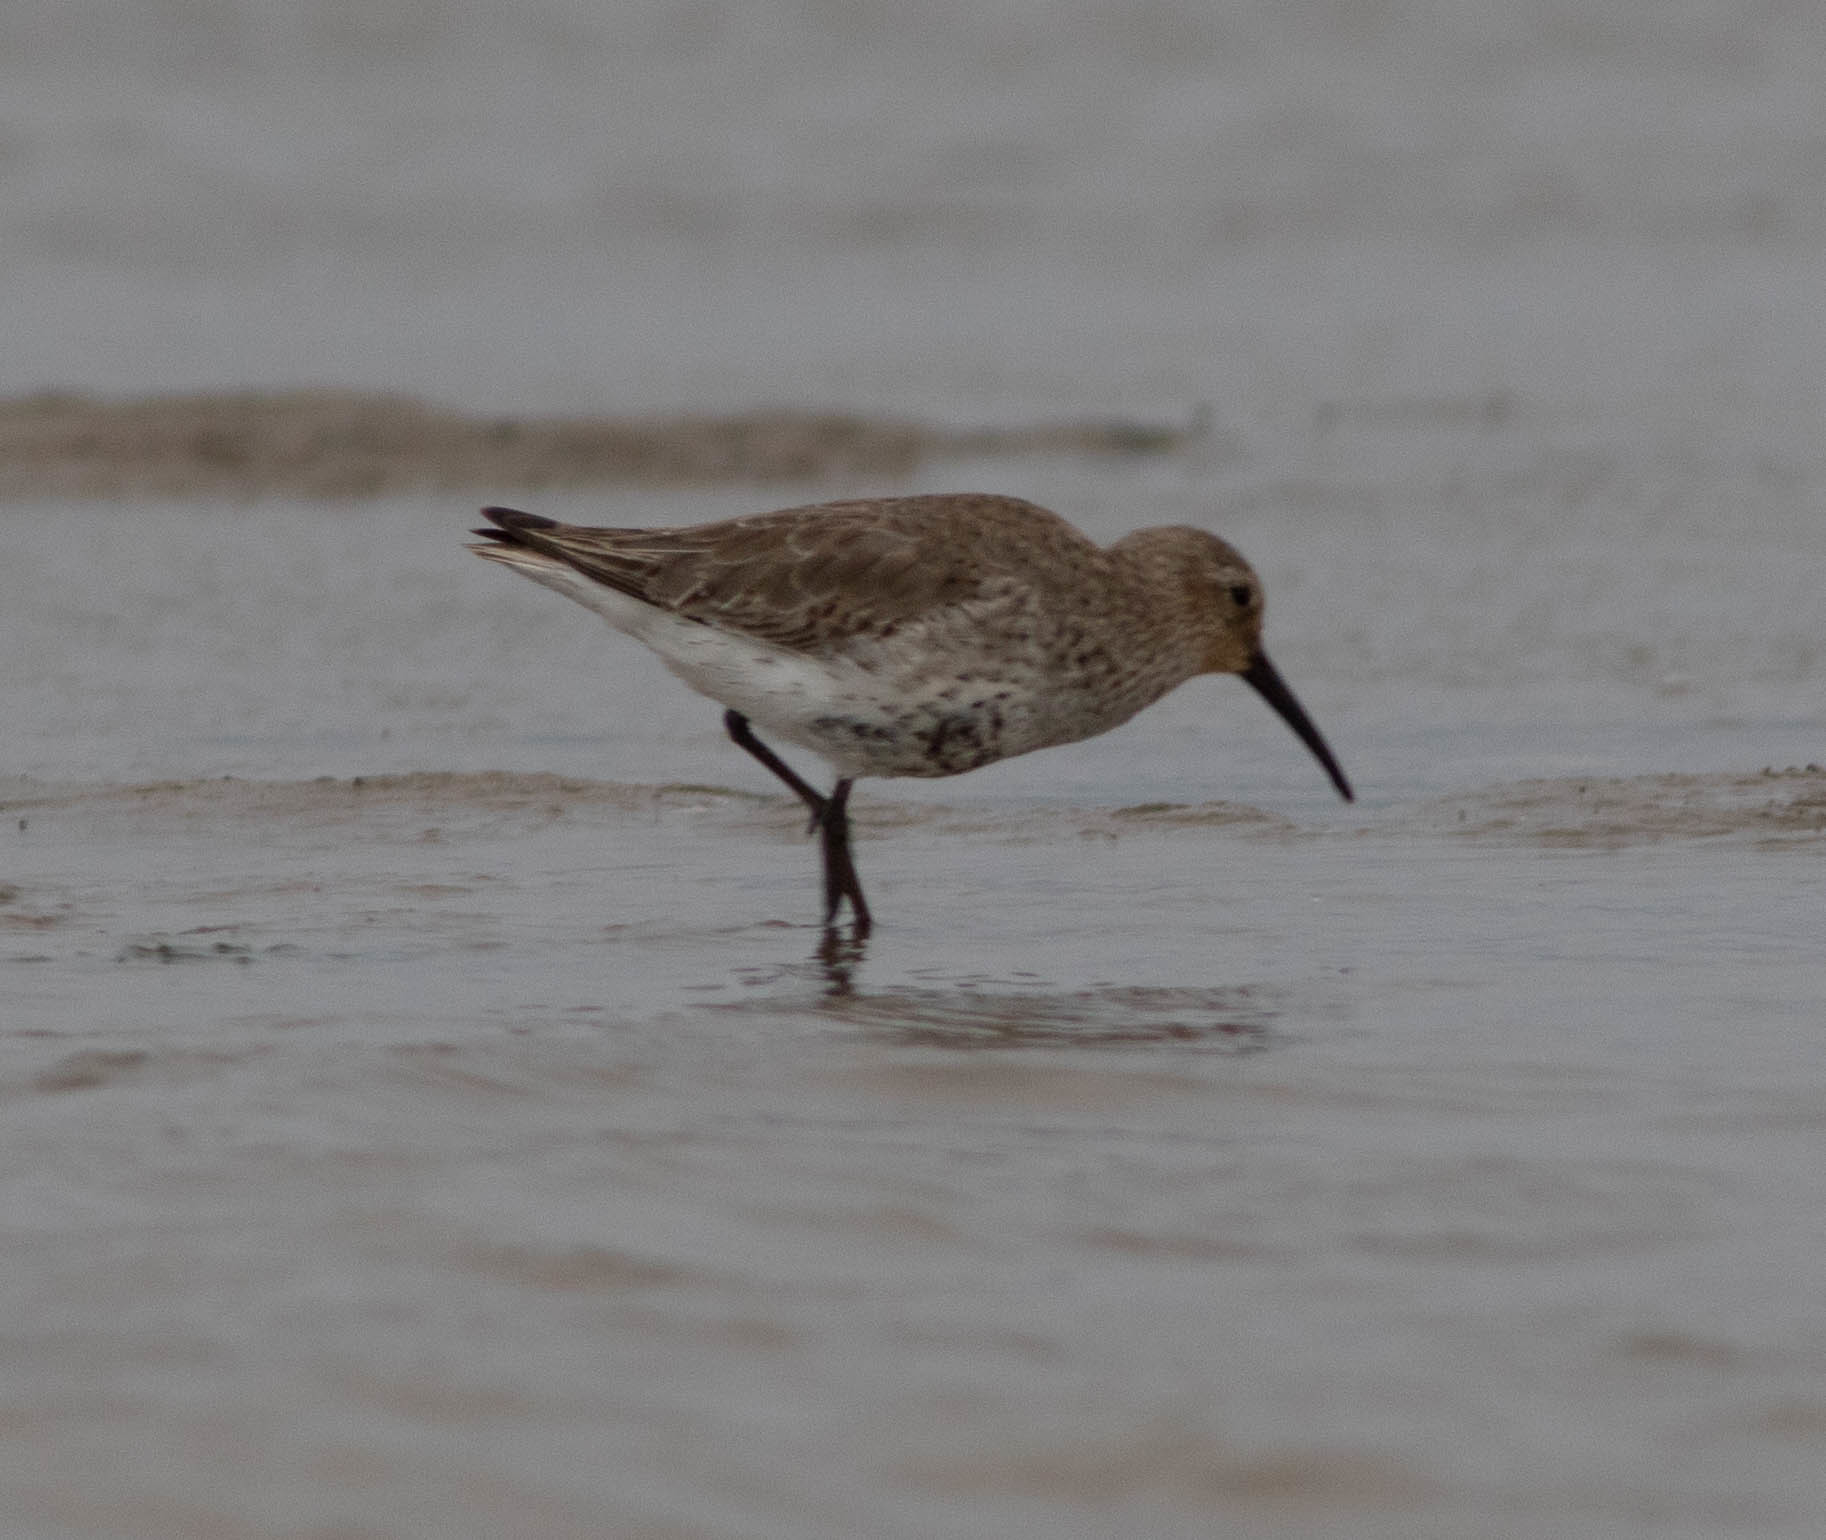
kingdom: Animalia
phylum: Chordata
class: Aves
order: Charadriiformes
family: Scolopacidae
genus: Calidris
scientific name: Calidris alpina
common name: Dunlin
